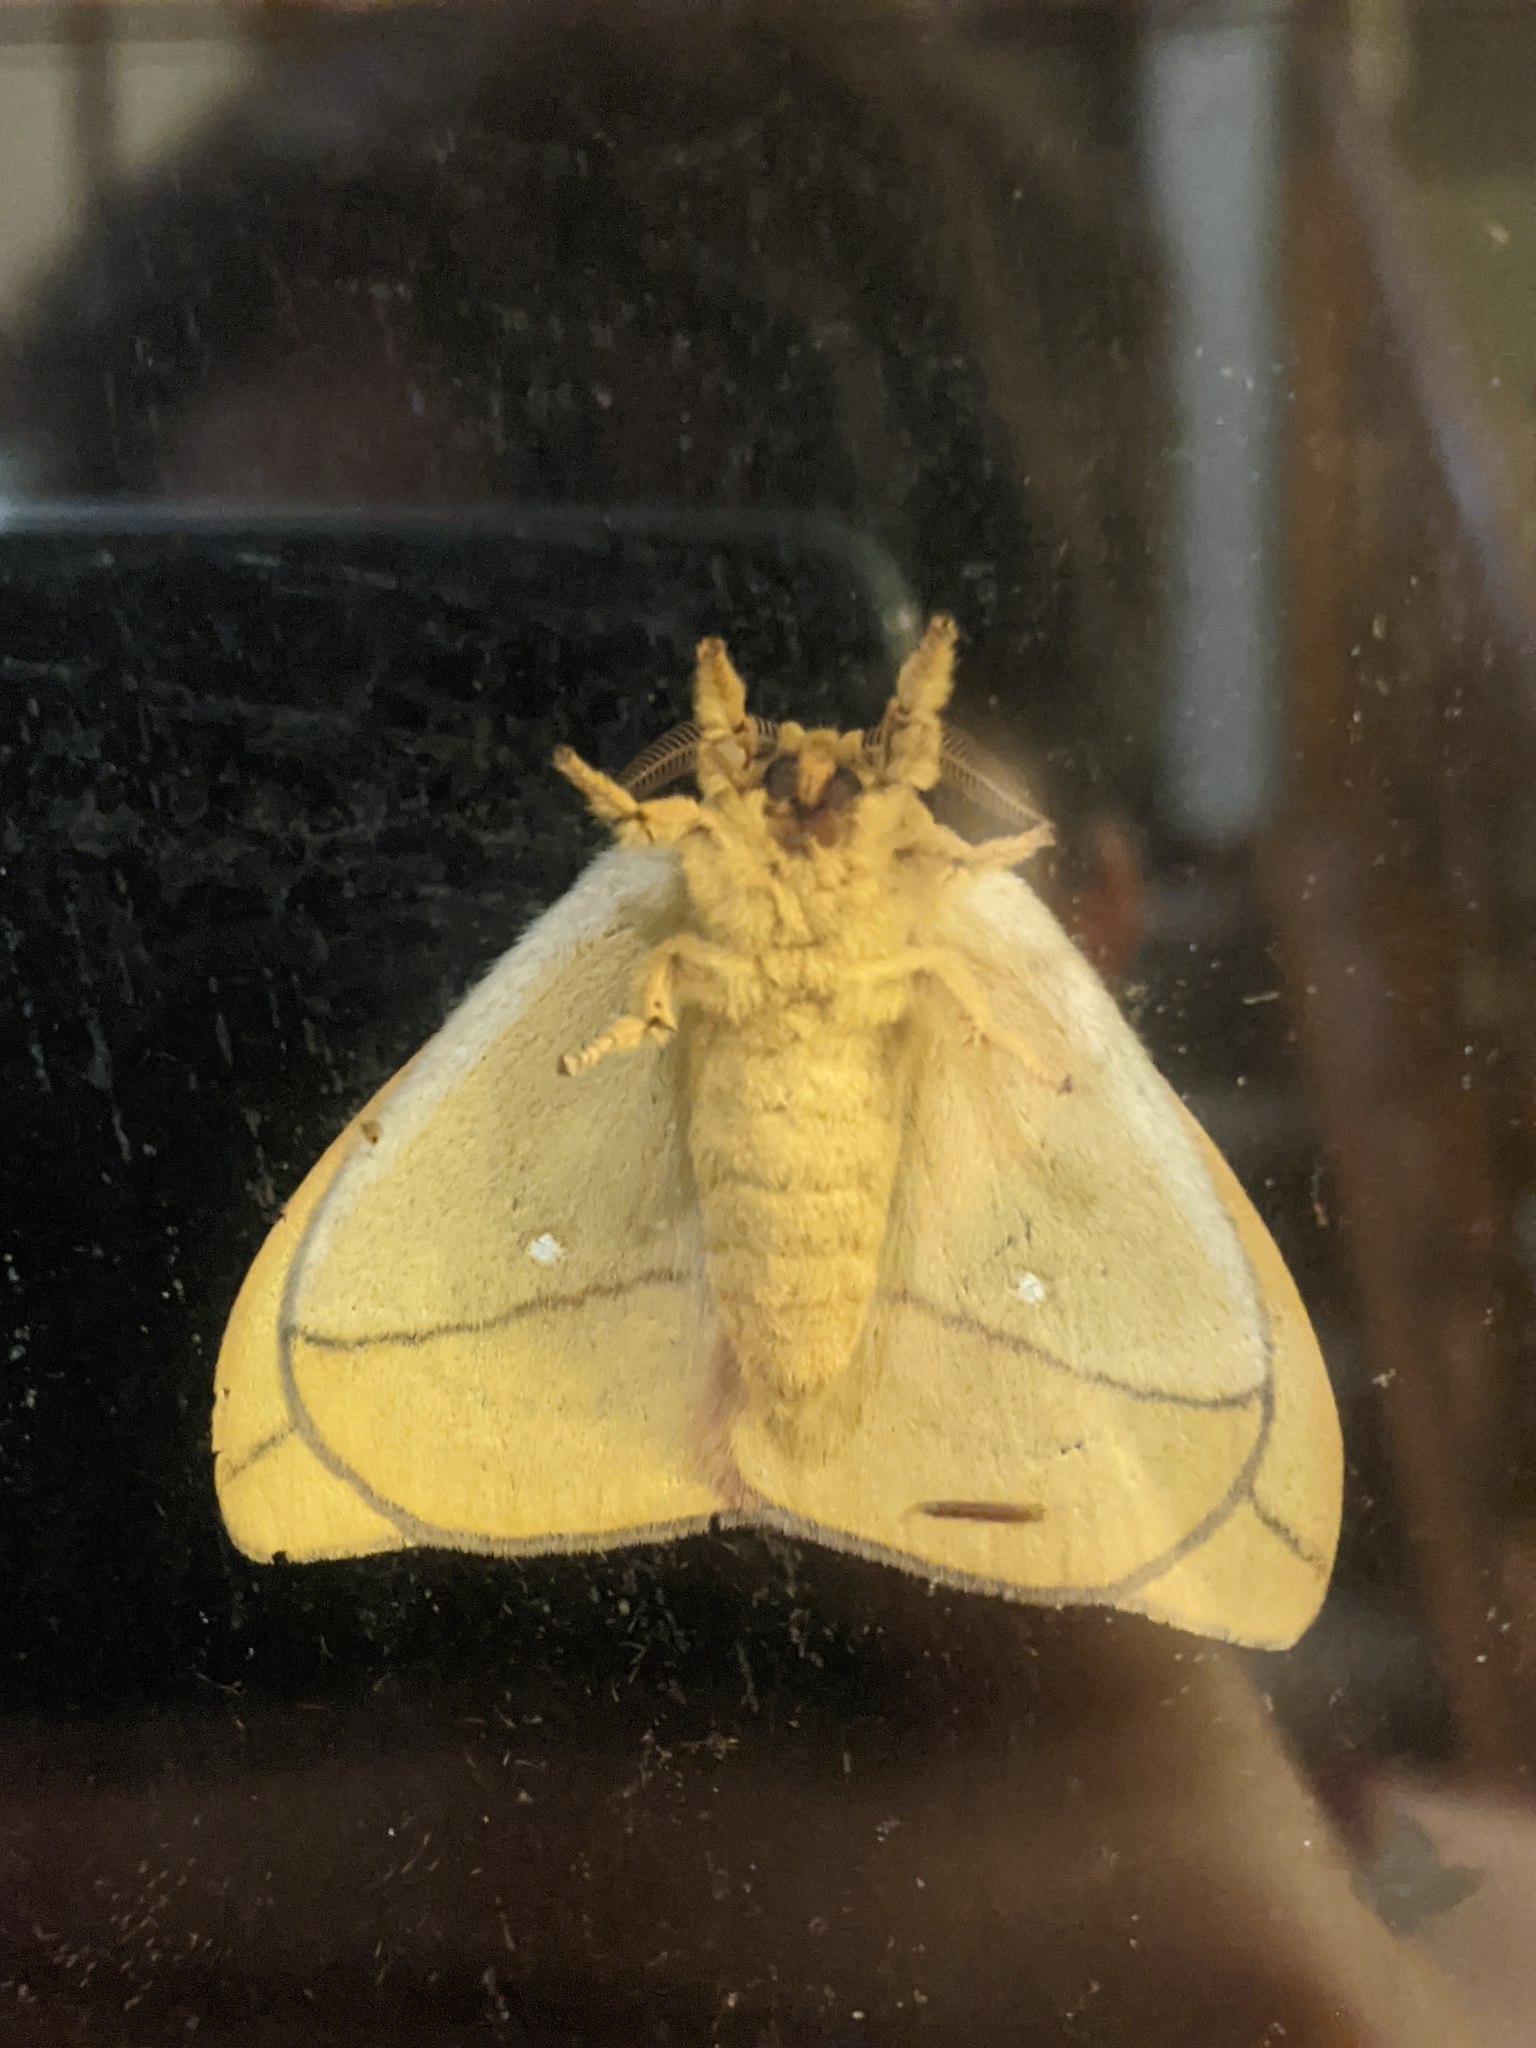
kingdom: Animalia
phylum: Arthropoda
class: Insecta
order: Lepidoptera
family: Saturniidae
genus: Automeris
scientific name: Automeris io
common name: Io moth
